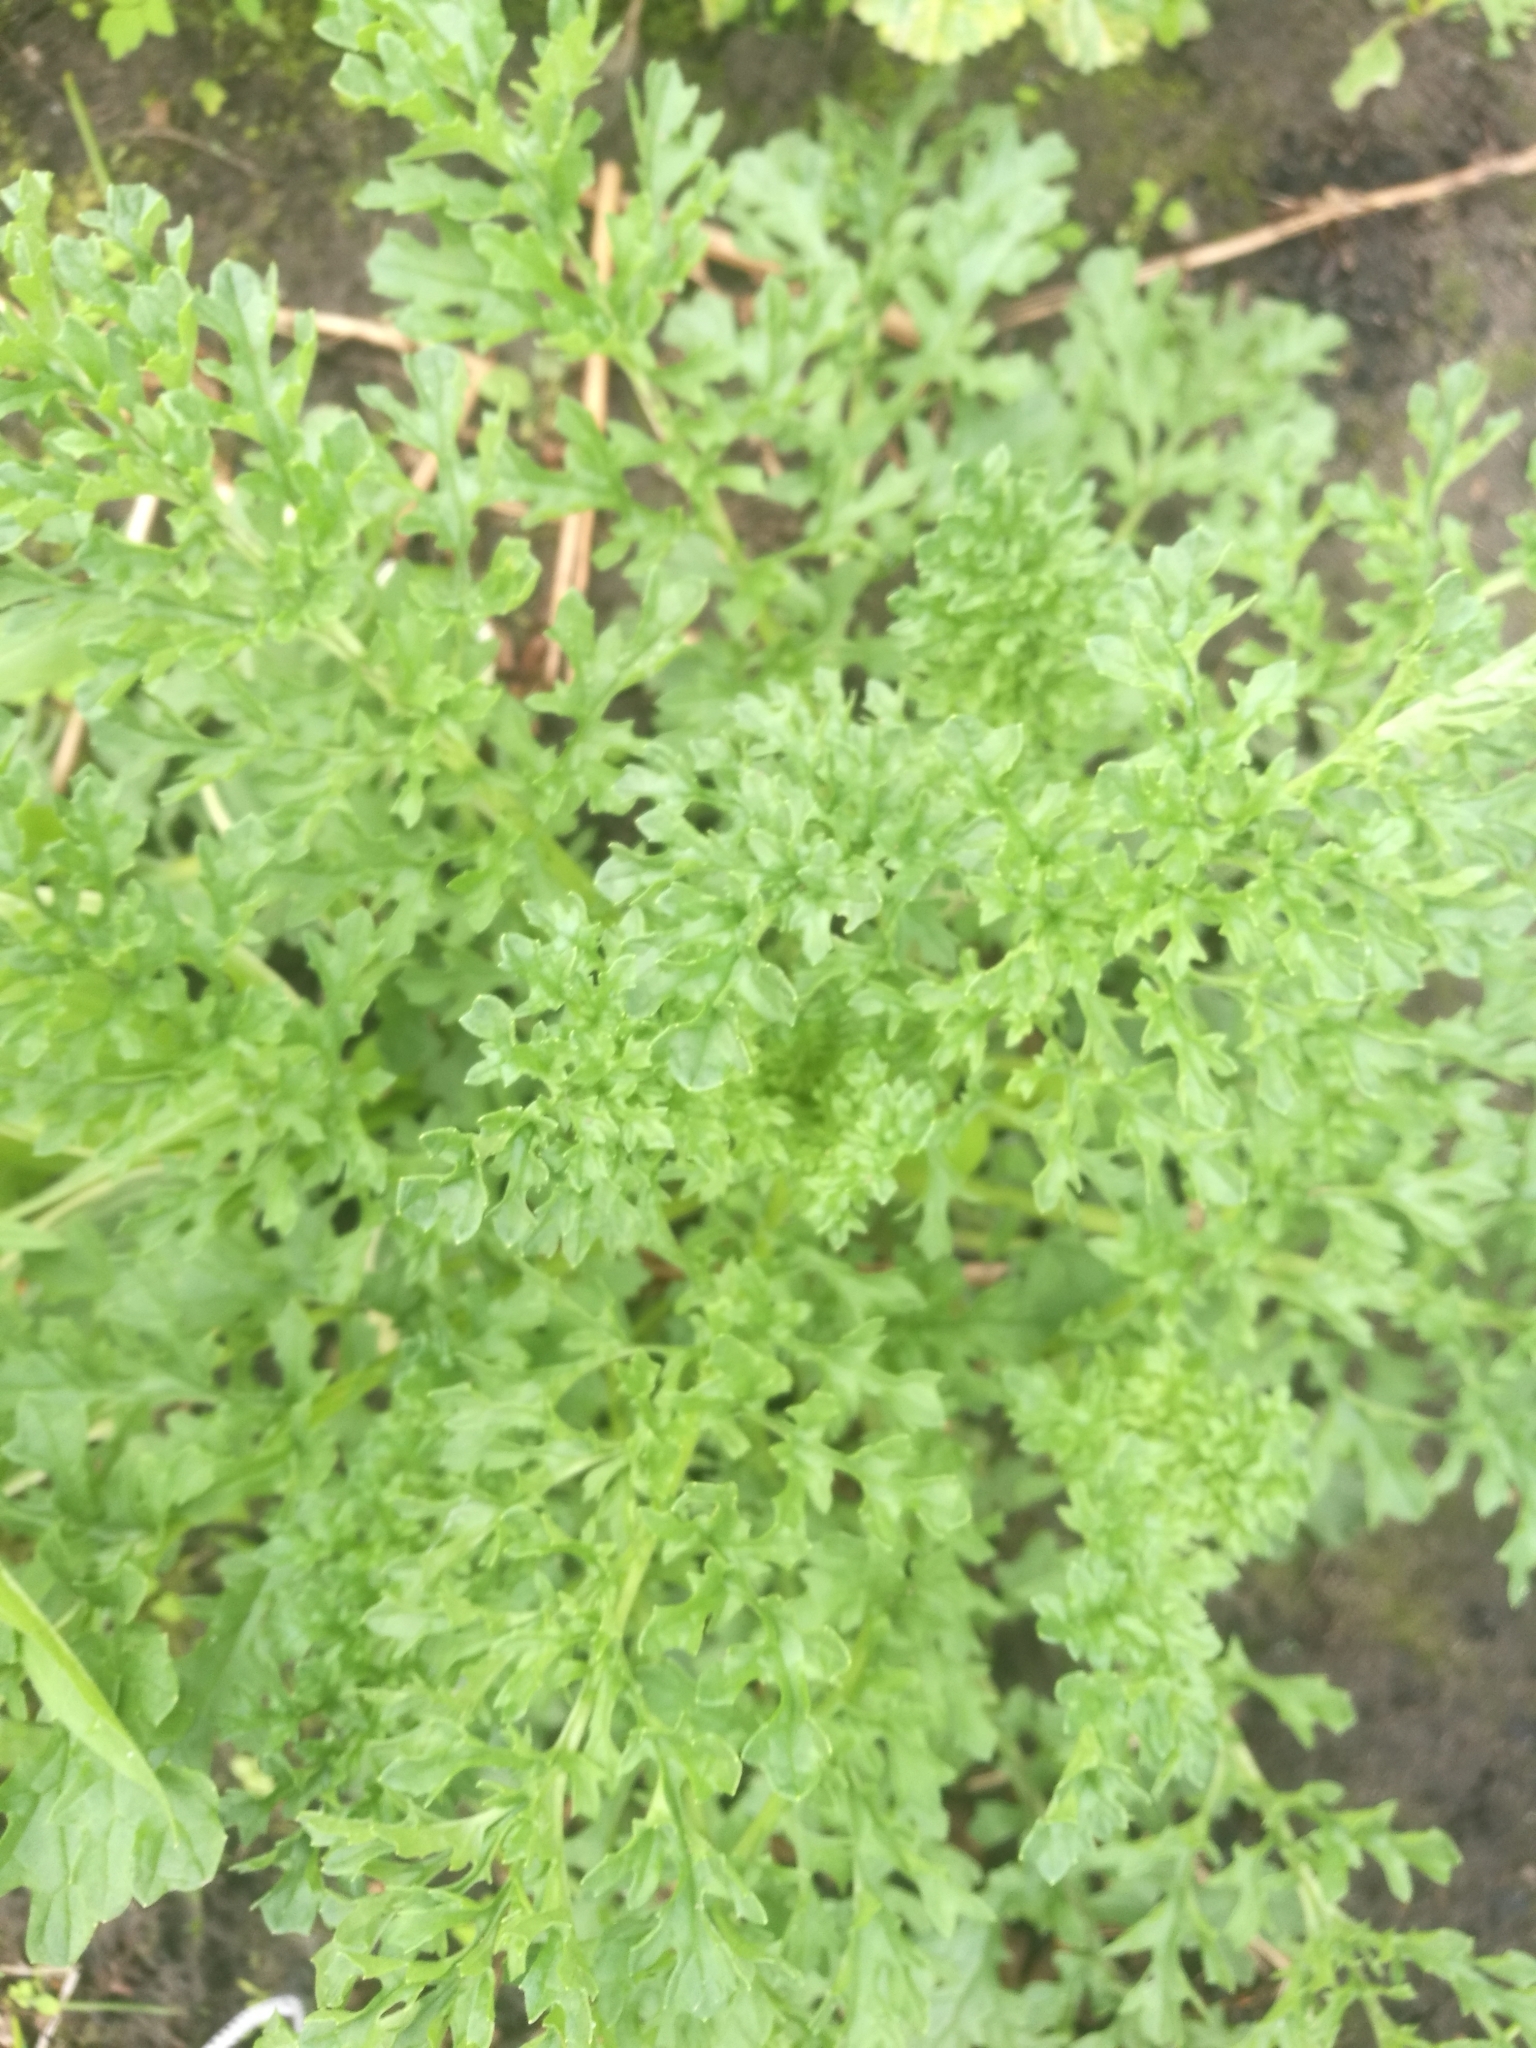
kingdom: Plantae
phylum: Tracheophyta
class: Magnoliopsida
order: Asterales
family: Asteraceae
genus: Jacobaea
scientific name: Jacobaea vulgaris
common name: Stinking willie
